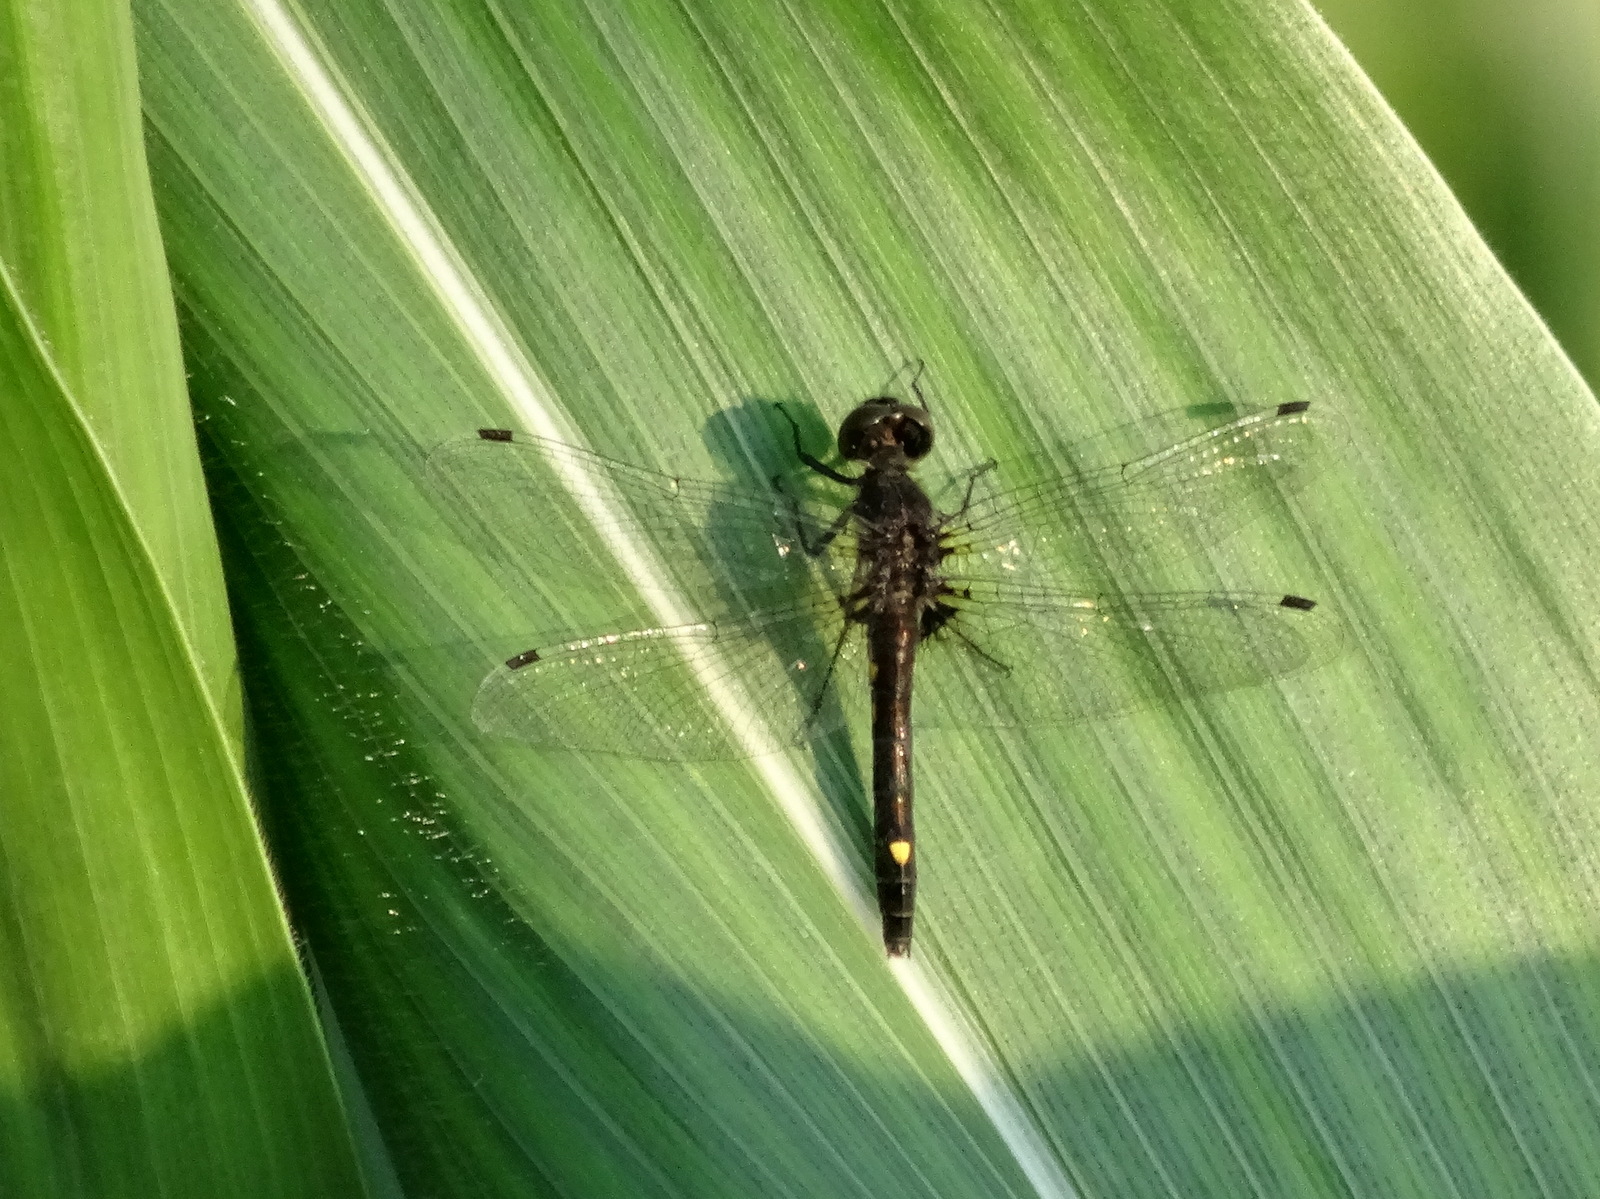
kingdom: Animalia
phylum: Arthropoda
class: Insecta
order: Odonata
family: Libellulidae
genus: Leucorrhinia
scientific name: Leucorrhinia intacta
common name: Dot-tailed whiteface
